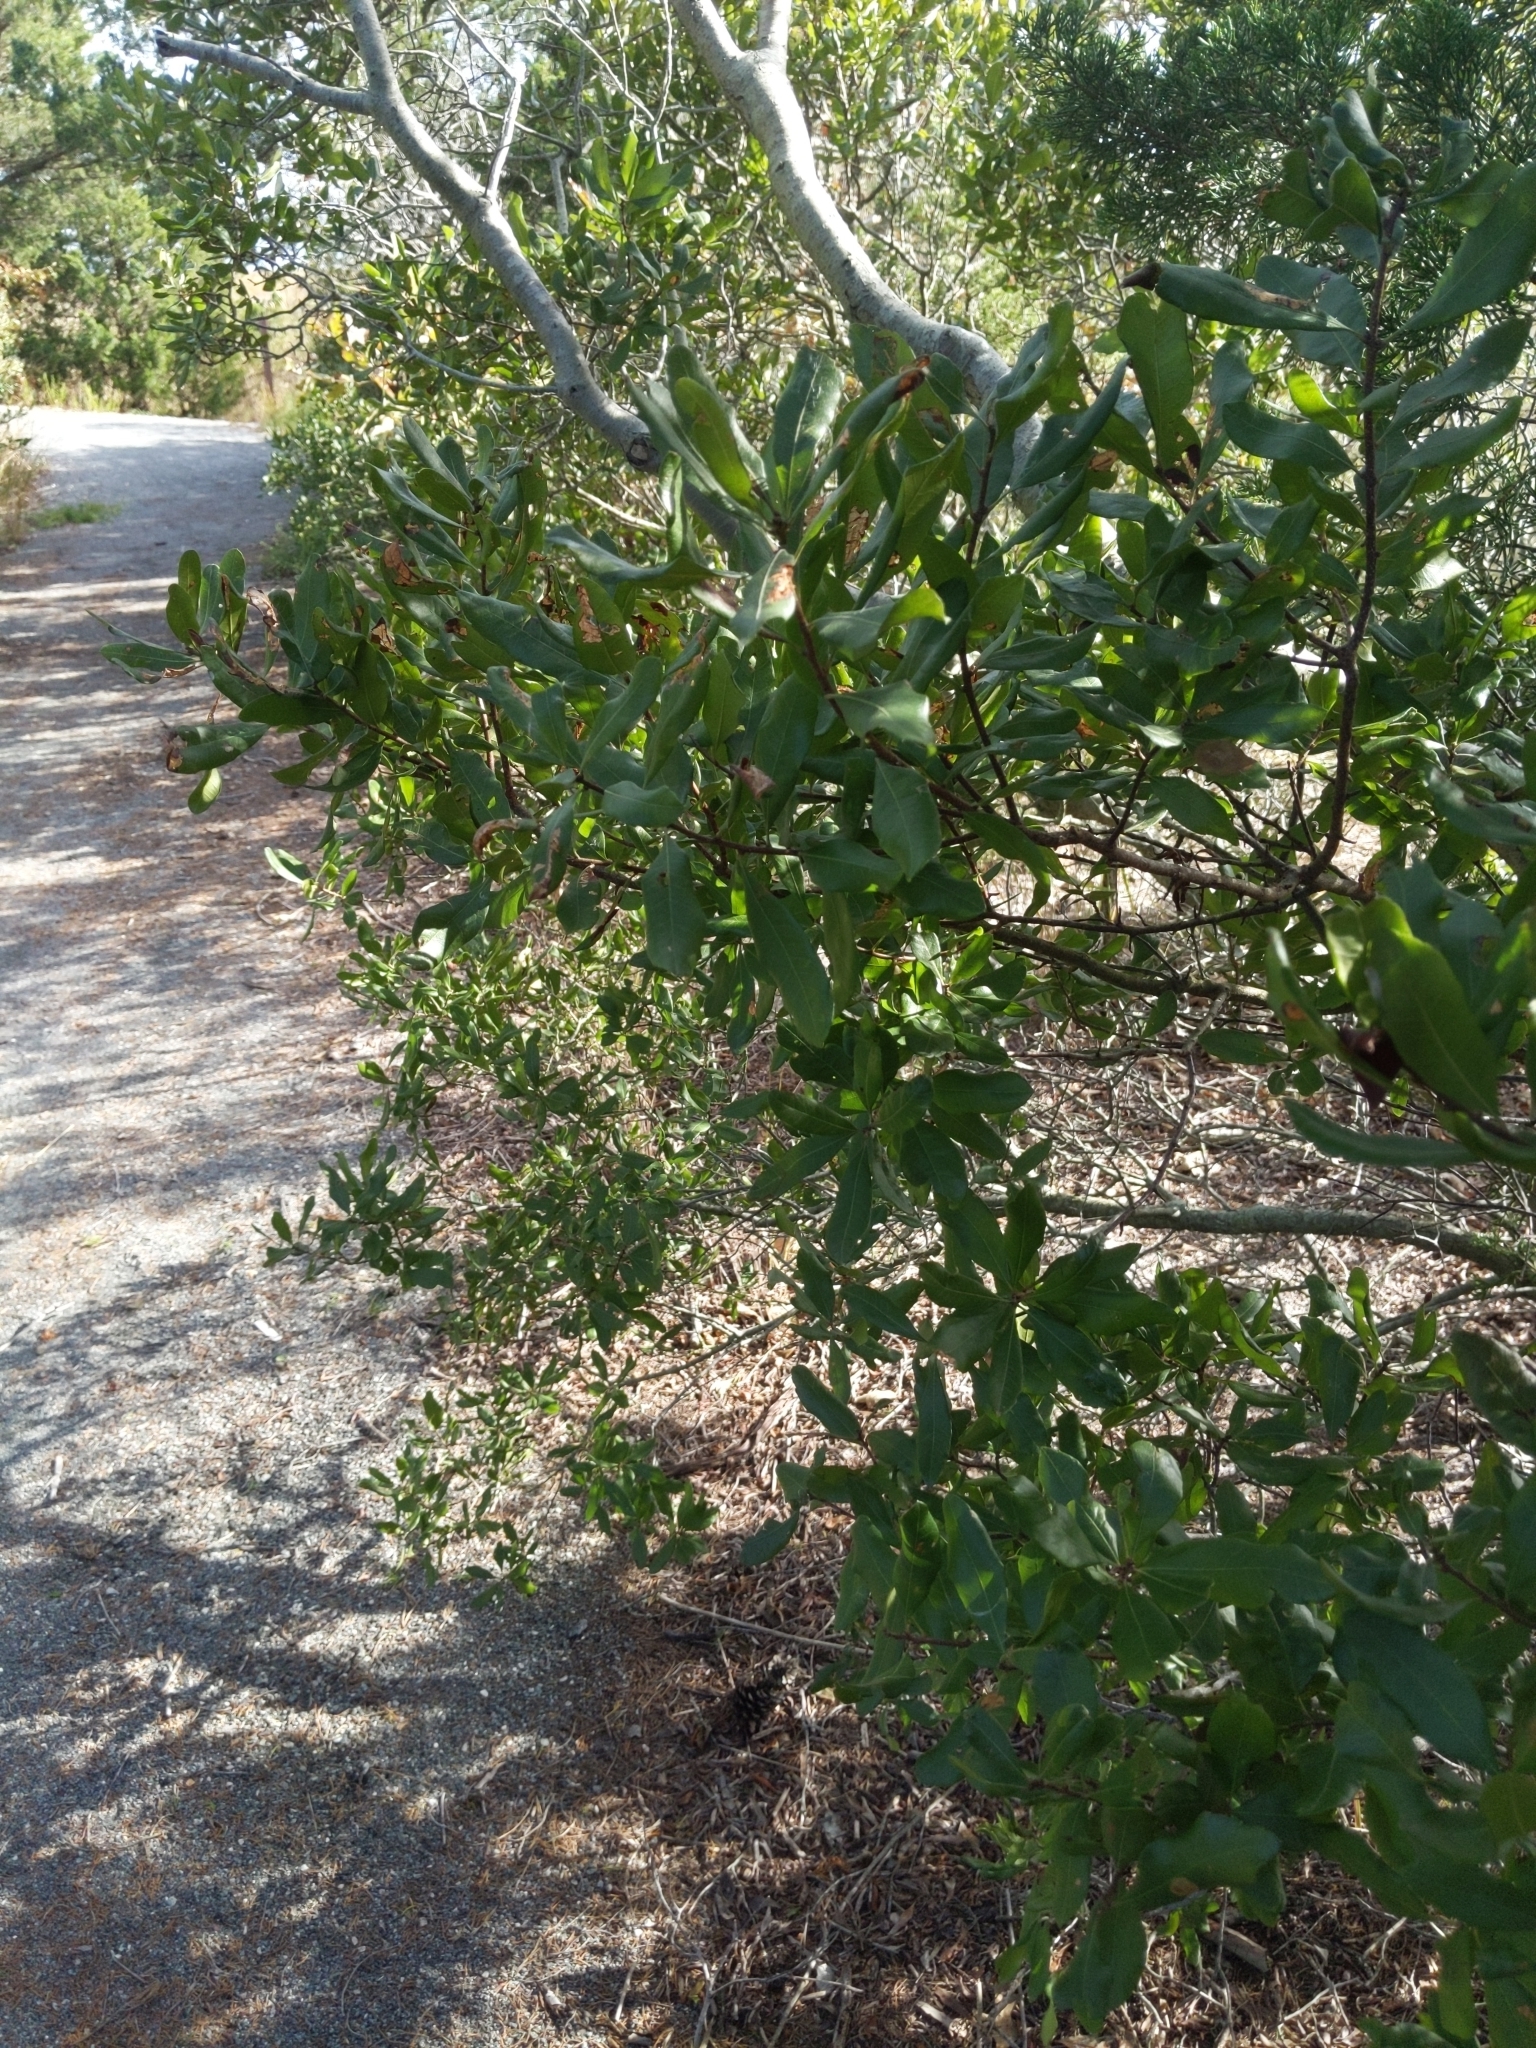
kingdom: Plantae
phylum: Tracheophyta
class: Magnoliopsida
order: Fagales
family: Myricaceae
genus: Morella
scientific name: Morella pensylvanica
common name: Northern bayberry
